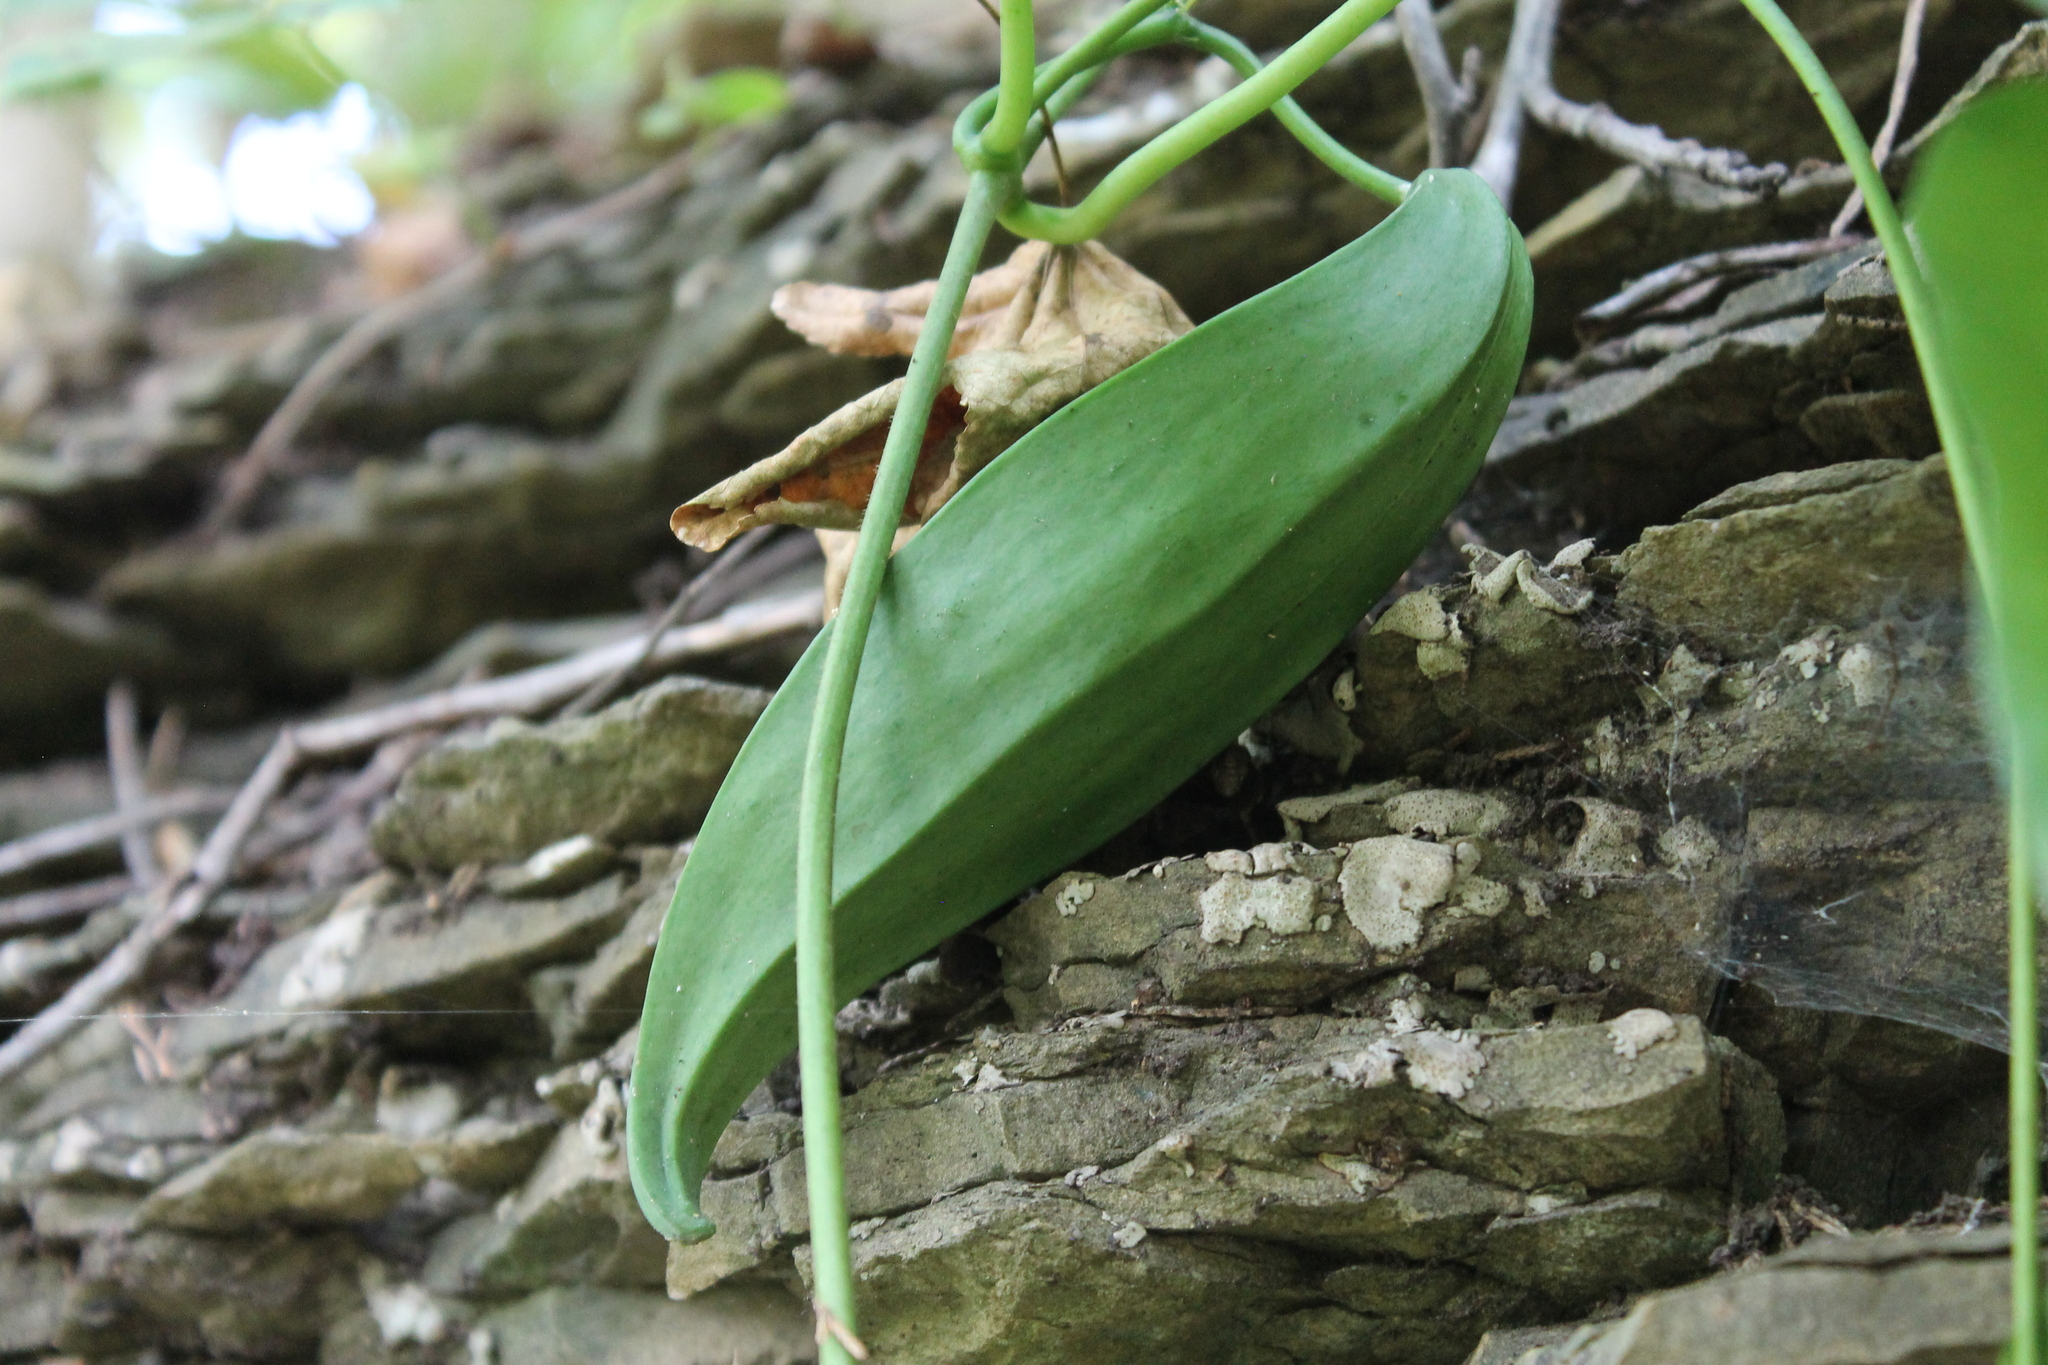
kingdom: Plantae
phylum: Tracheophyta
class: Magnoliopsida
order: Gentianales
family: Apocynaceae
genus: Gonolobus
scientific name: Gonolobus suberosus
